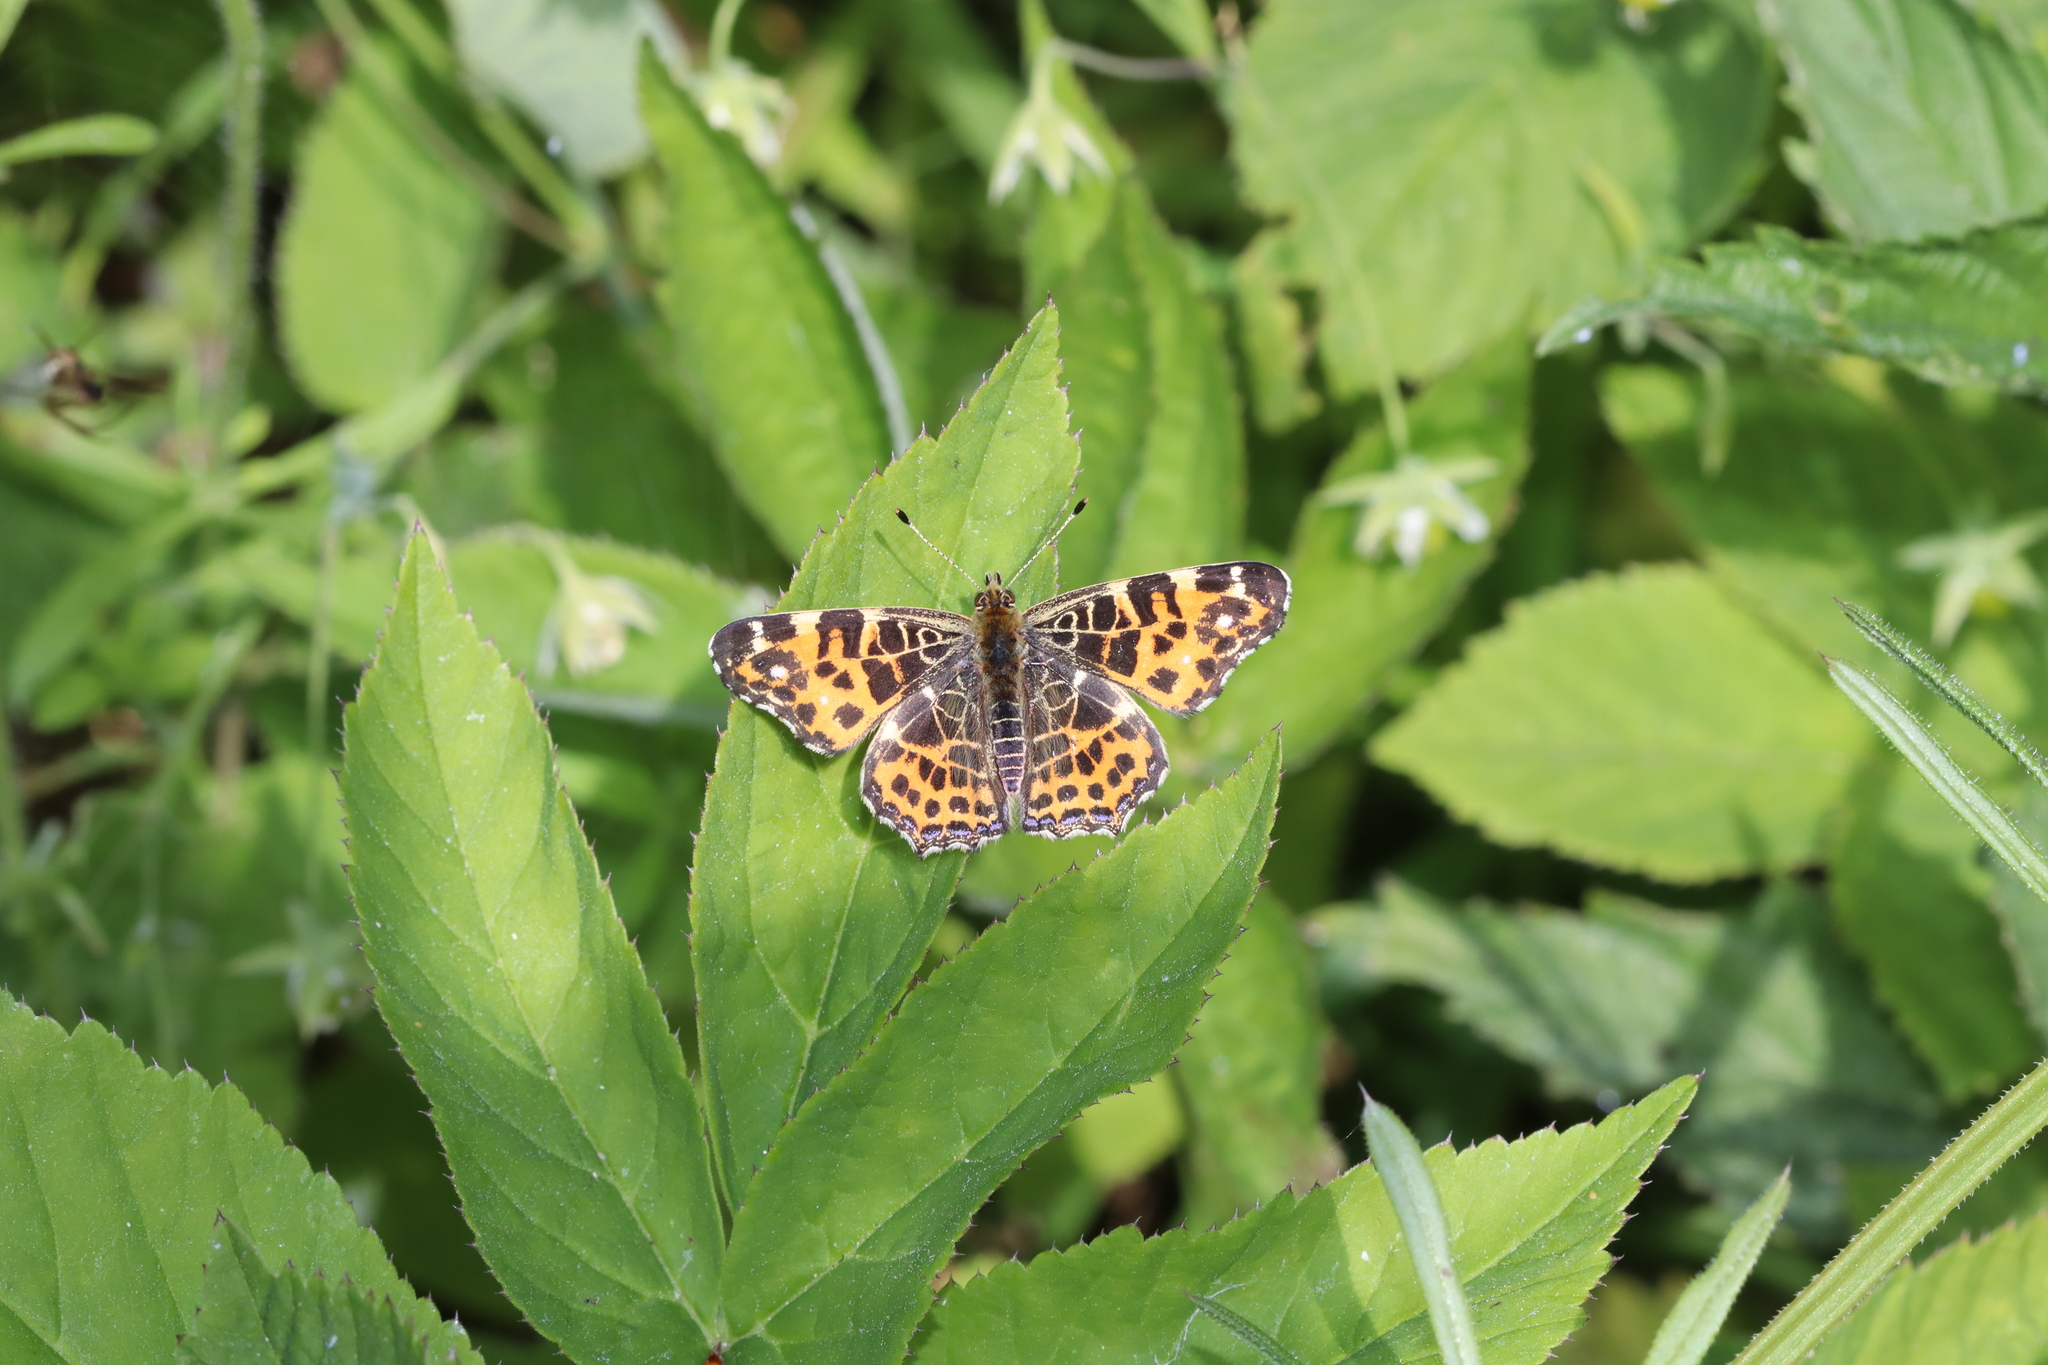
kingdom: Animalia
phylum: Arthropoda
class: Insecta
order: Lepidoptera
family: Nymphalidae
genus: Araschnia
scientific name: Araschnia levana
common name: Map butterfly
